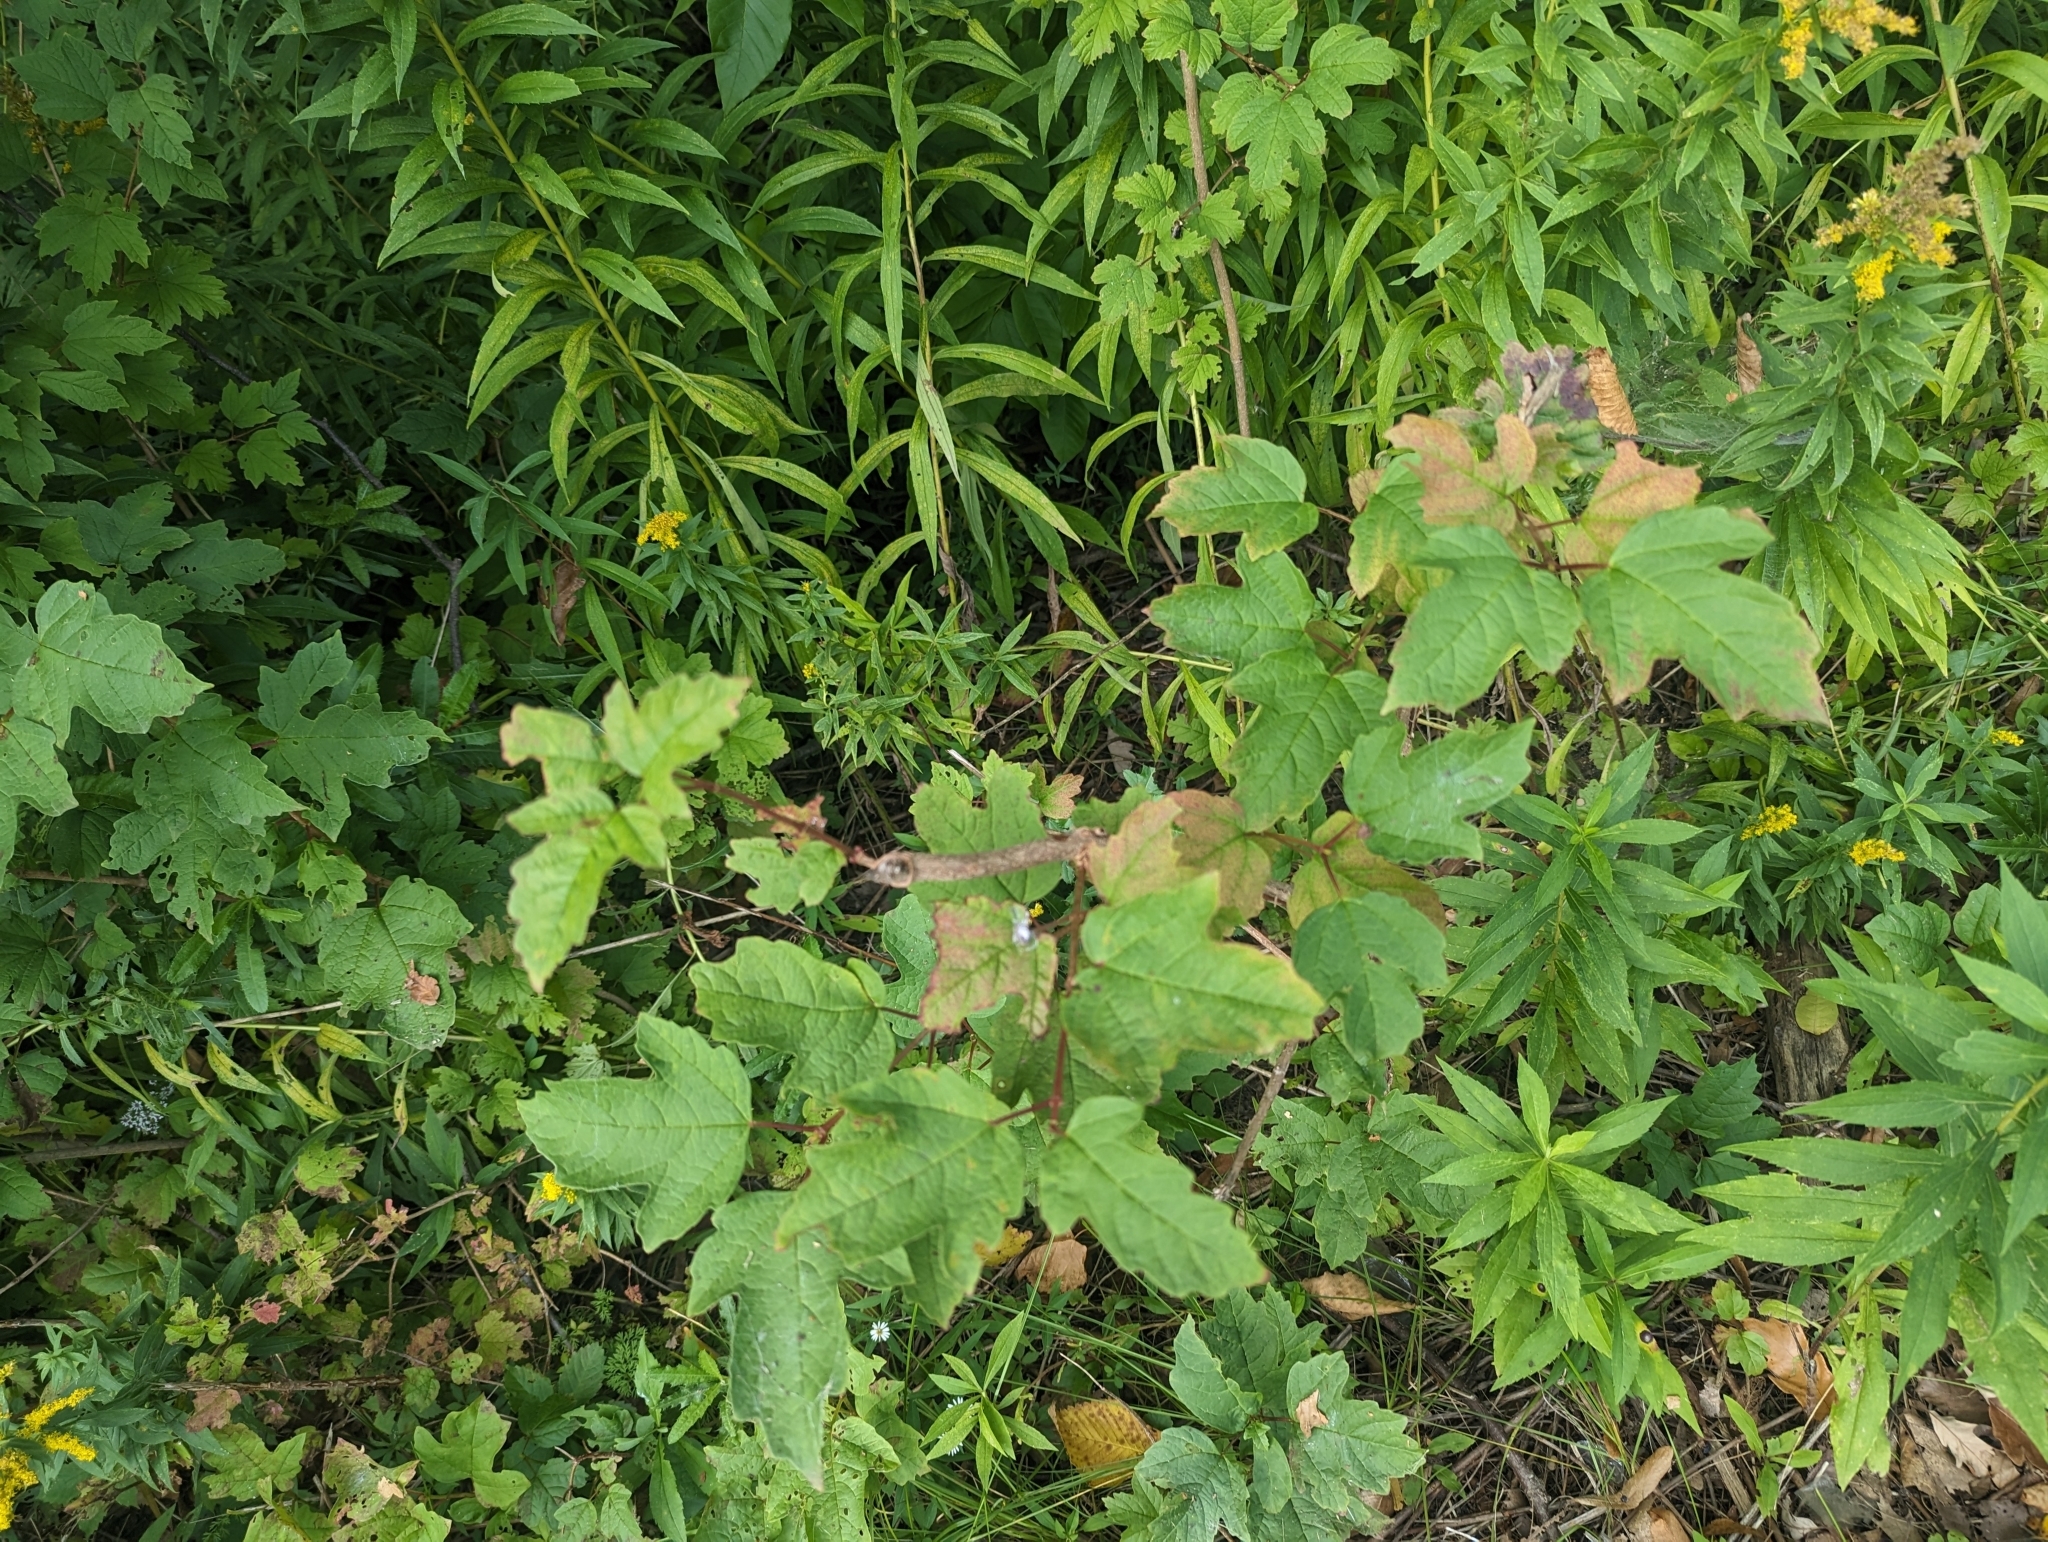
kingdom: Plantae
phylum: Tracheophyta
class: Magnoliopsida
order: Dipsacales
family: Viburnaceae
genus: Viburnum
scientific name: Viburnum opulus
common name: Guelder-rose
